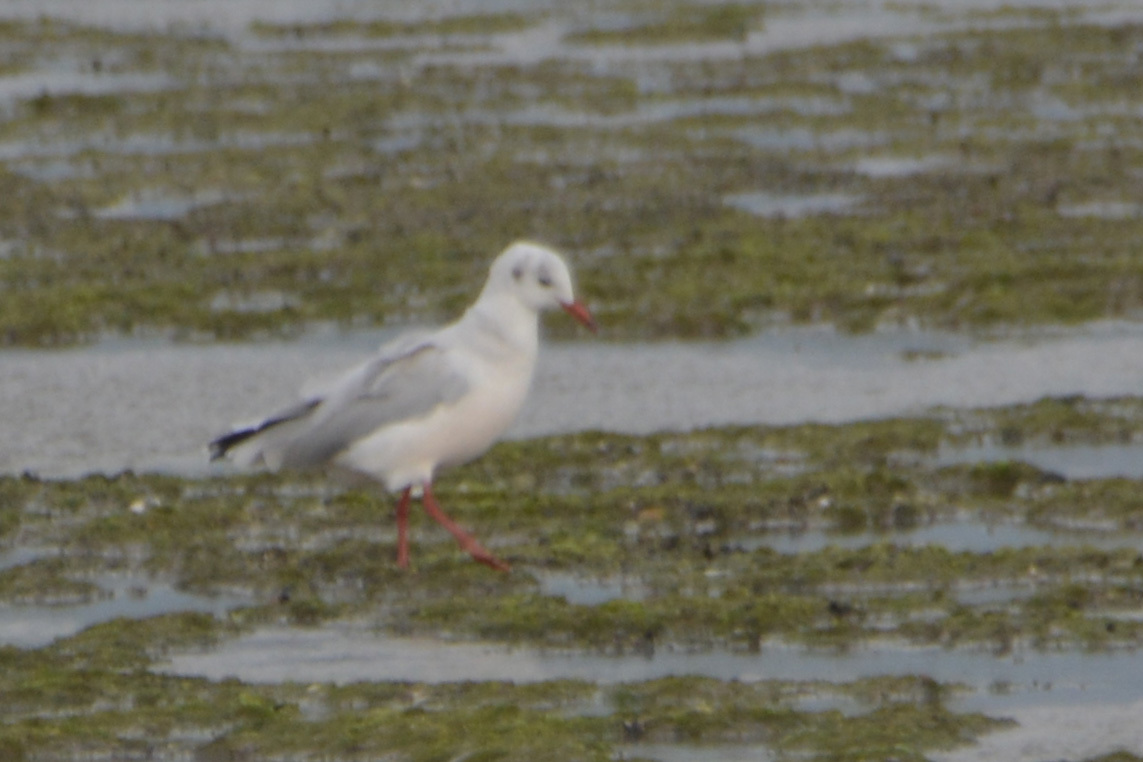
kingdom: Animalia
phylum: Chordata
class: Aves
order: Charadriiformes
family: Laridae
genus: Chroicocephalus
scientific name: Chroicocephalus maculipennis
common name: Brown-hooded gull
